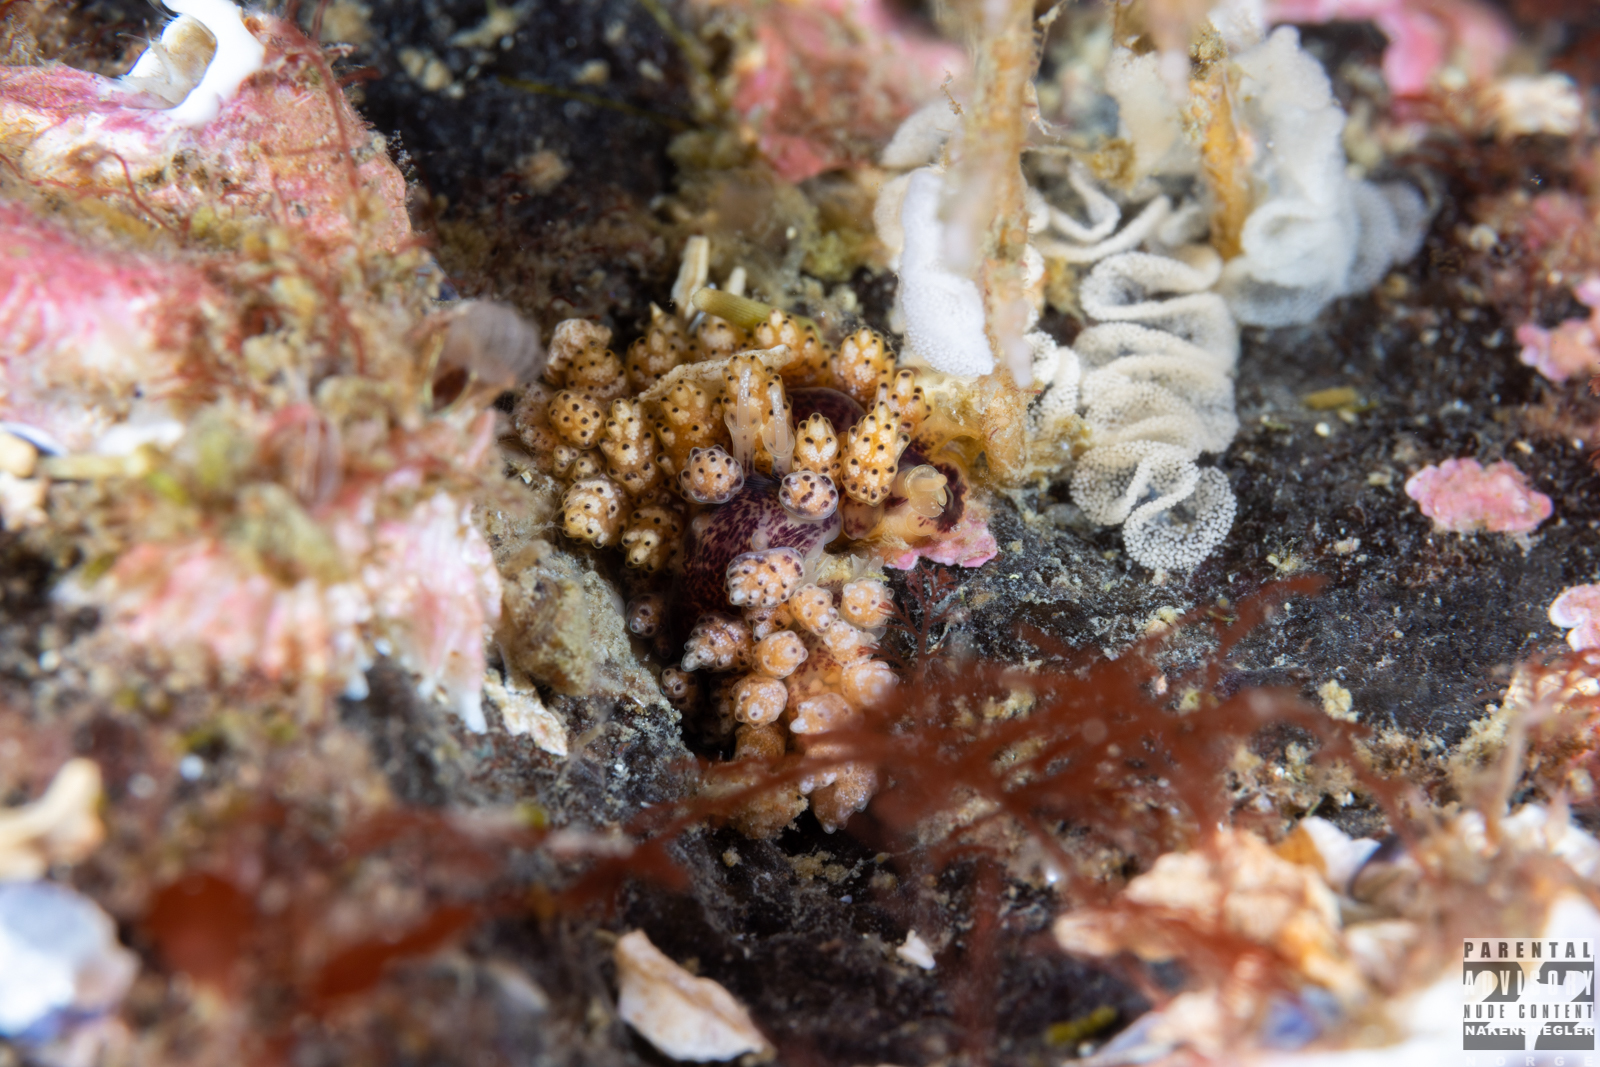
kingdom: Animalia
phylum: Mollusca
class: Gastropoda
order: Nudibranchia
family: Dotidae
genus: Doto
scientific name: Doto coronata
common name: Coronate doto
